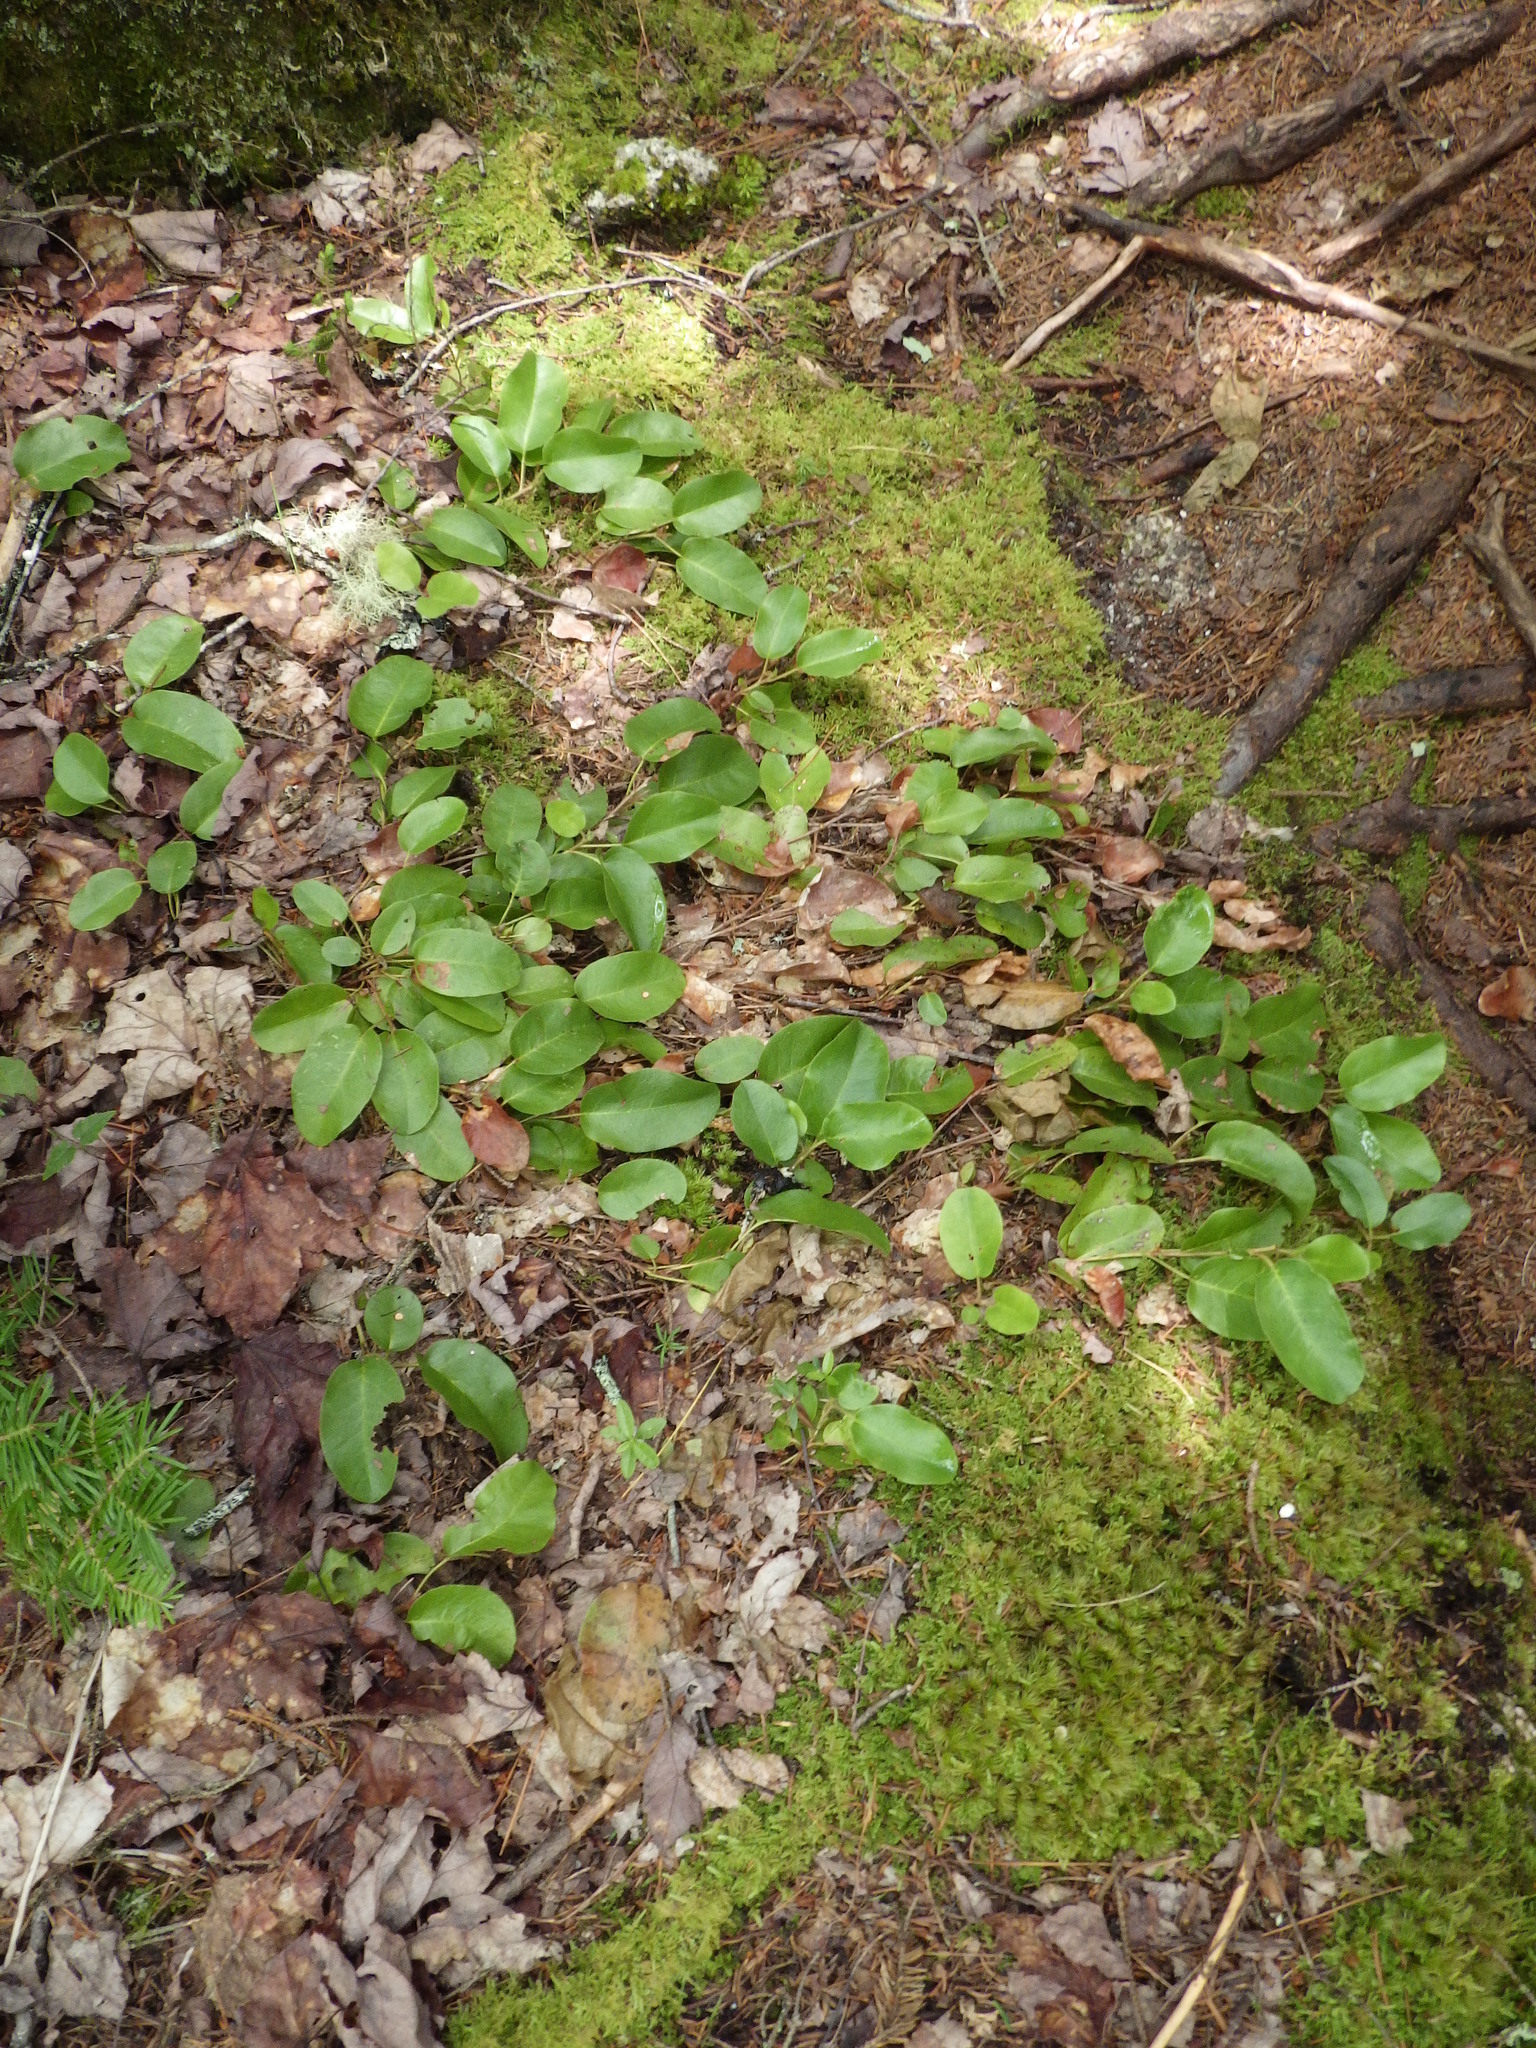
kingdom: Plantae
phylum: Tracheophyta
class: Magnoliopsida
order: Ericales
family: Ericaceae
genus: Epigaea
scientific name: Epigaea repens
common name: Gravelroot
